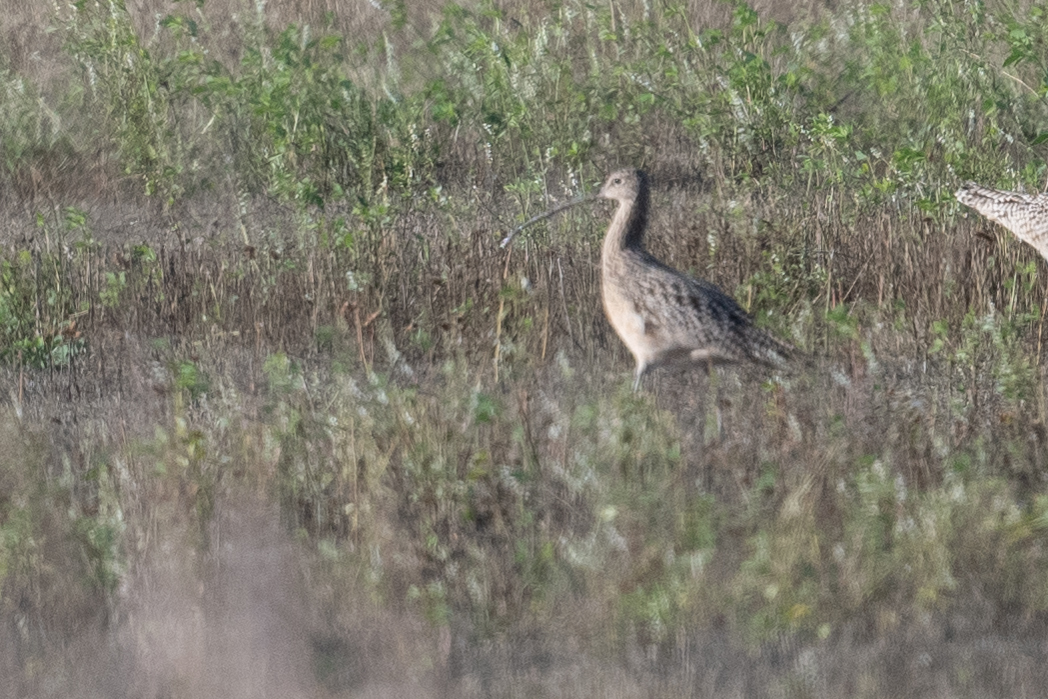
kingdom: Animalia
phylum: Chordata
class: Aves
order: Charadriiformes
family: Scolopacidae
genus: Numenius
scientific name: Numenius americanus
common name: Long-billed curlew
